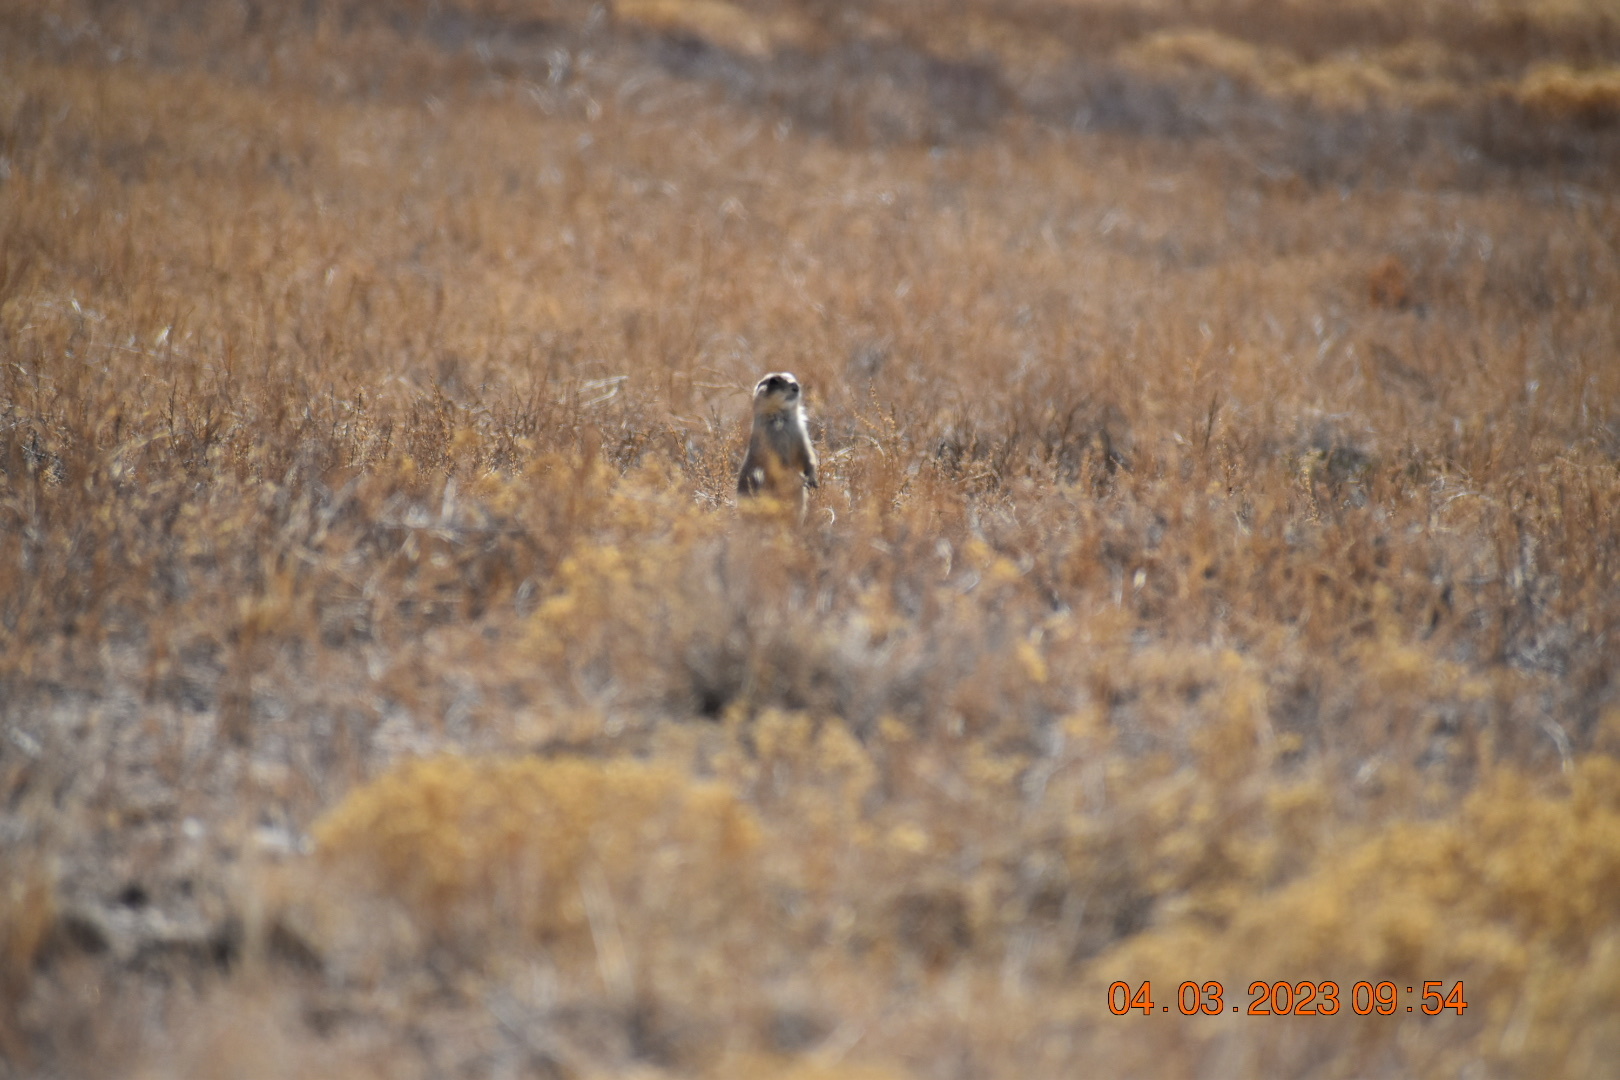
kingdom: Animalia
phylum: Chordata
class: Mammalia
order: Rodentia
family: Sciuridae
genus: Cynomys
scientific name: Cynomys ludovicianus
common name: Black-tailed prairie dog
